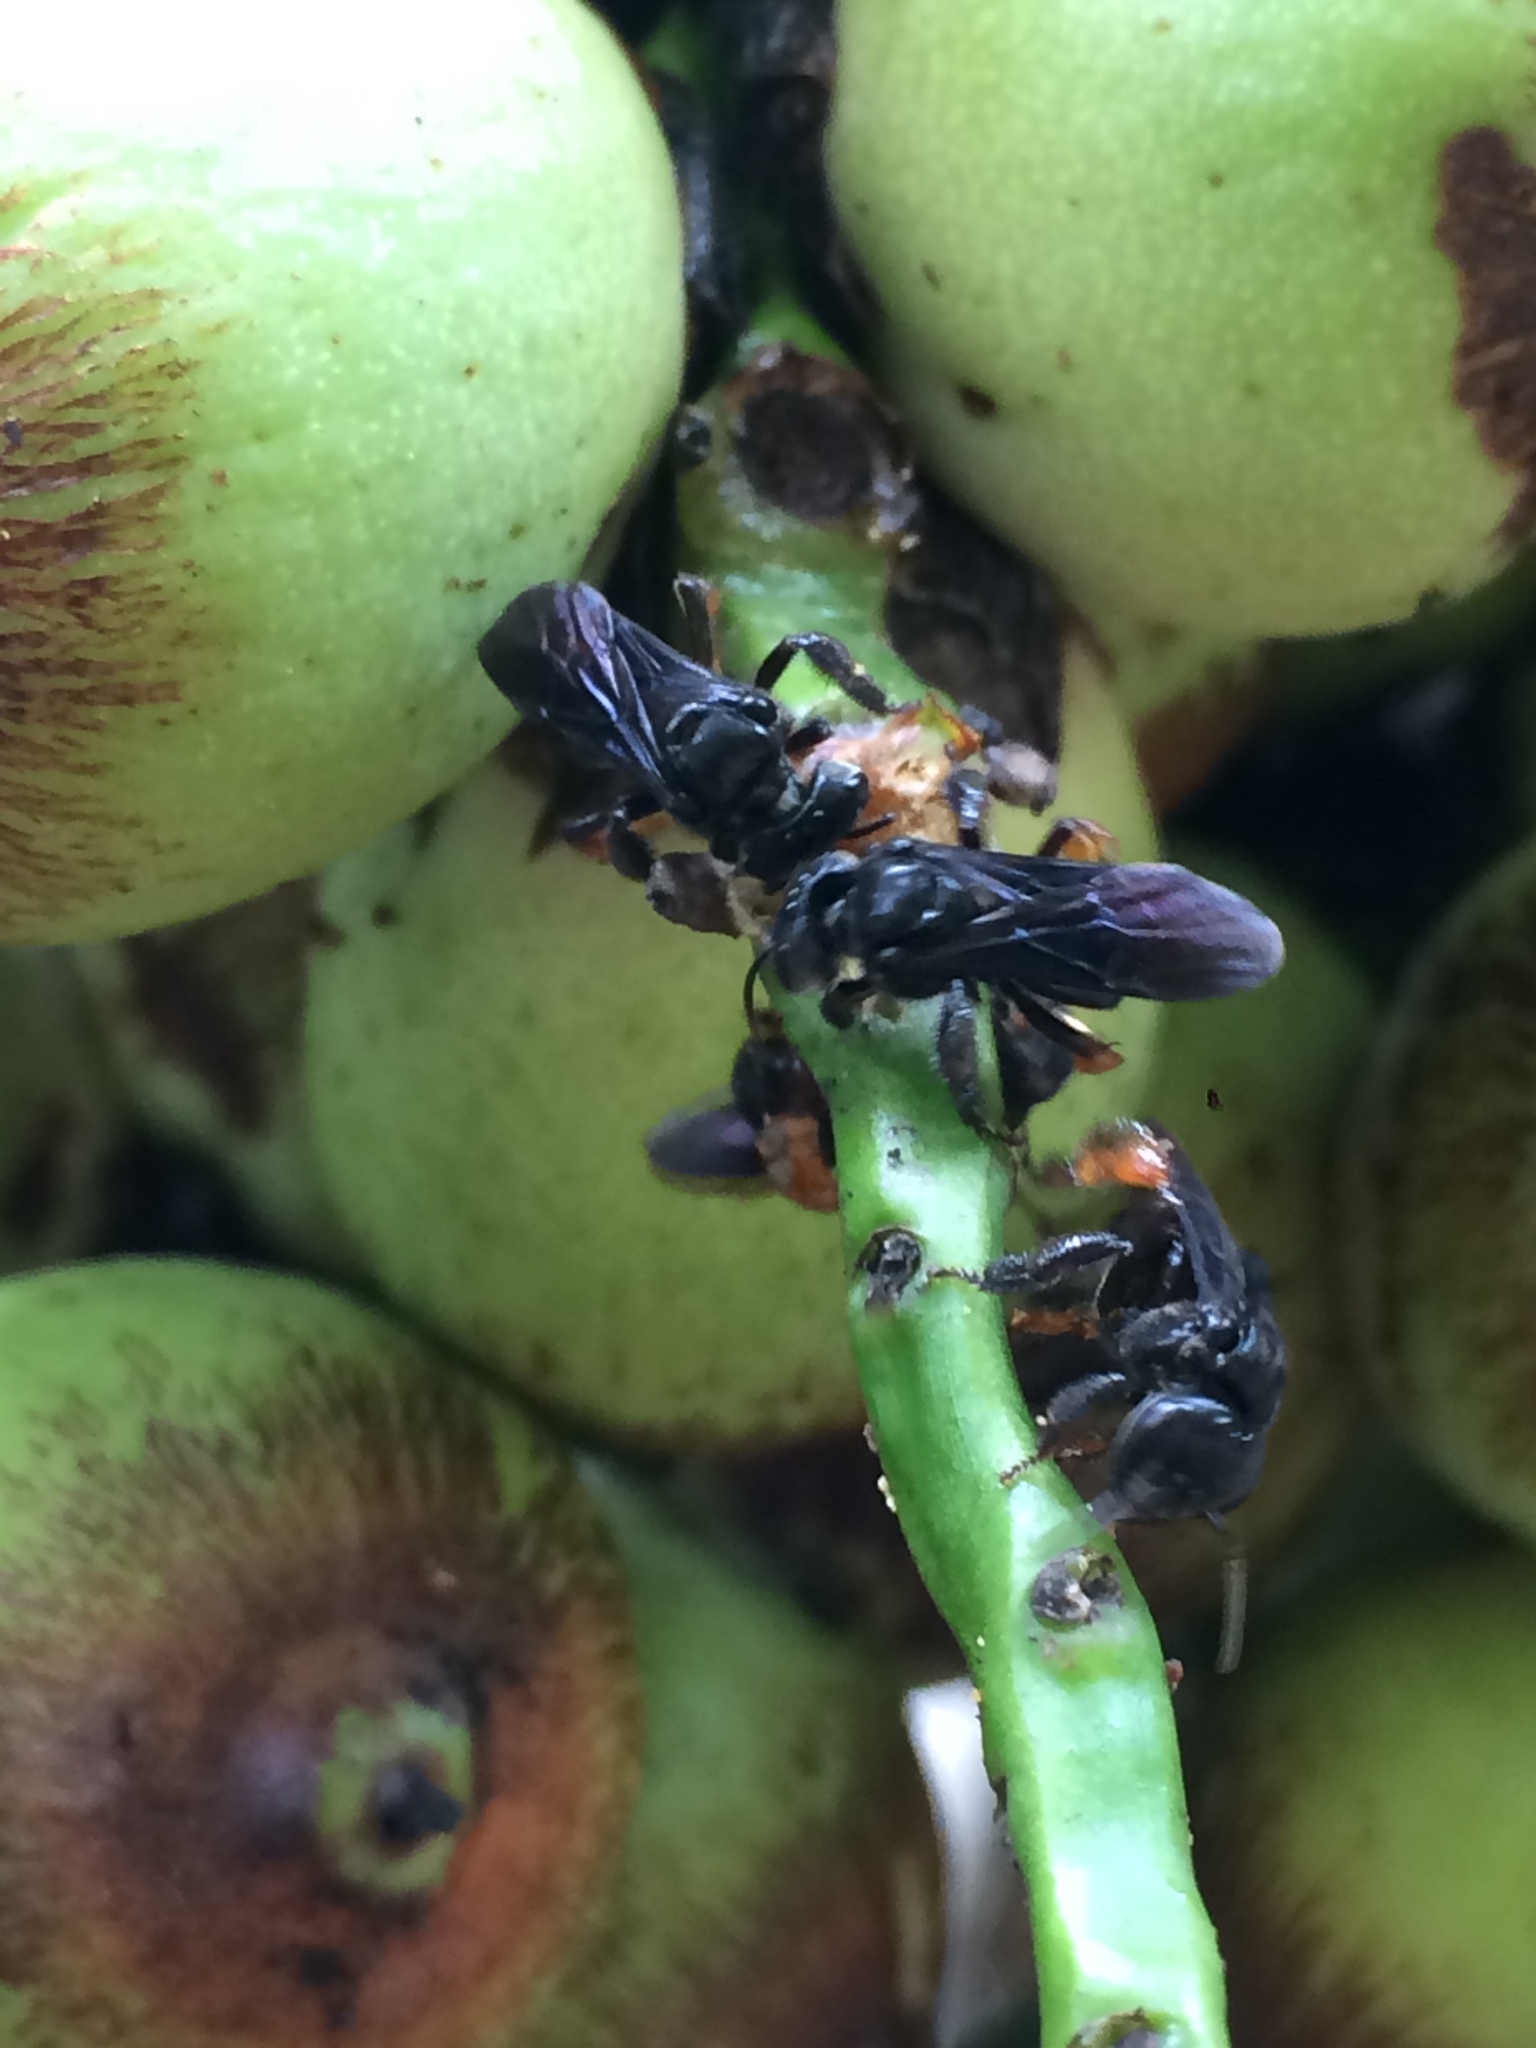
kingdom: Animalia
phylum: Arthropoda
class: Insecta
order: Hymenoptera
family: Apidae
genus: Trigona
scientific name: Trigona spinipes
